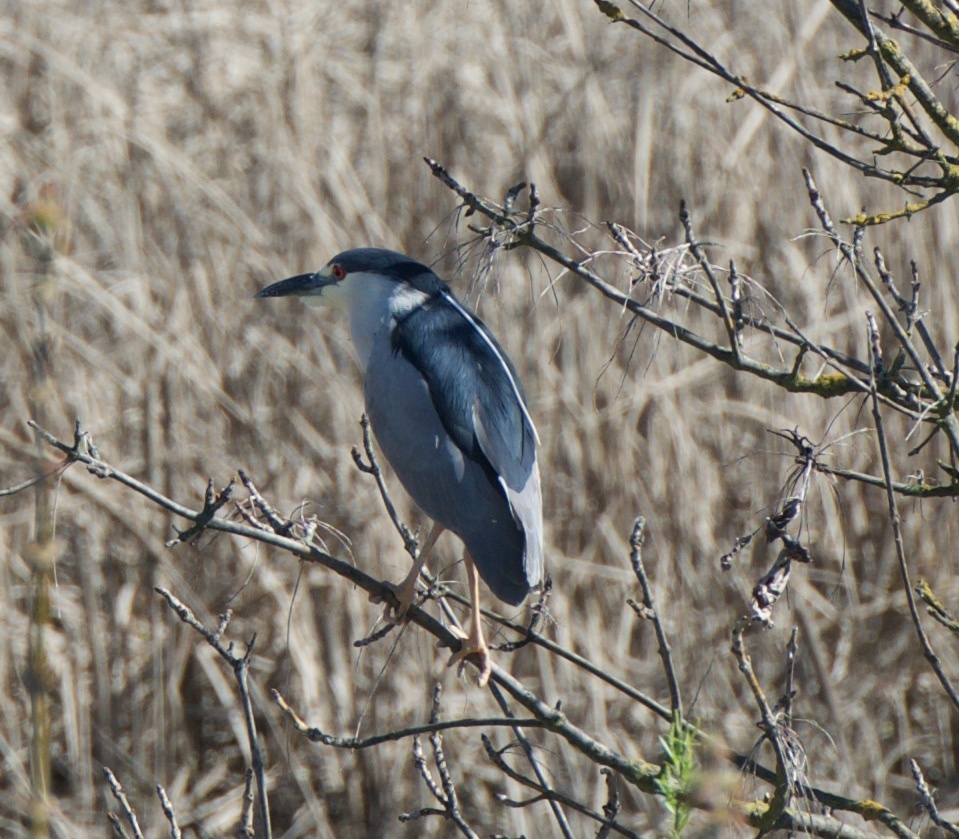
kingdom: Animalia
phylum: Chordata
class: Aves
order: Pelecaniformes
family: Ardeidae
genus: Nycticorax
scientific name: Nycticorax nycticorax
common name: Black-crowned night heron
